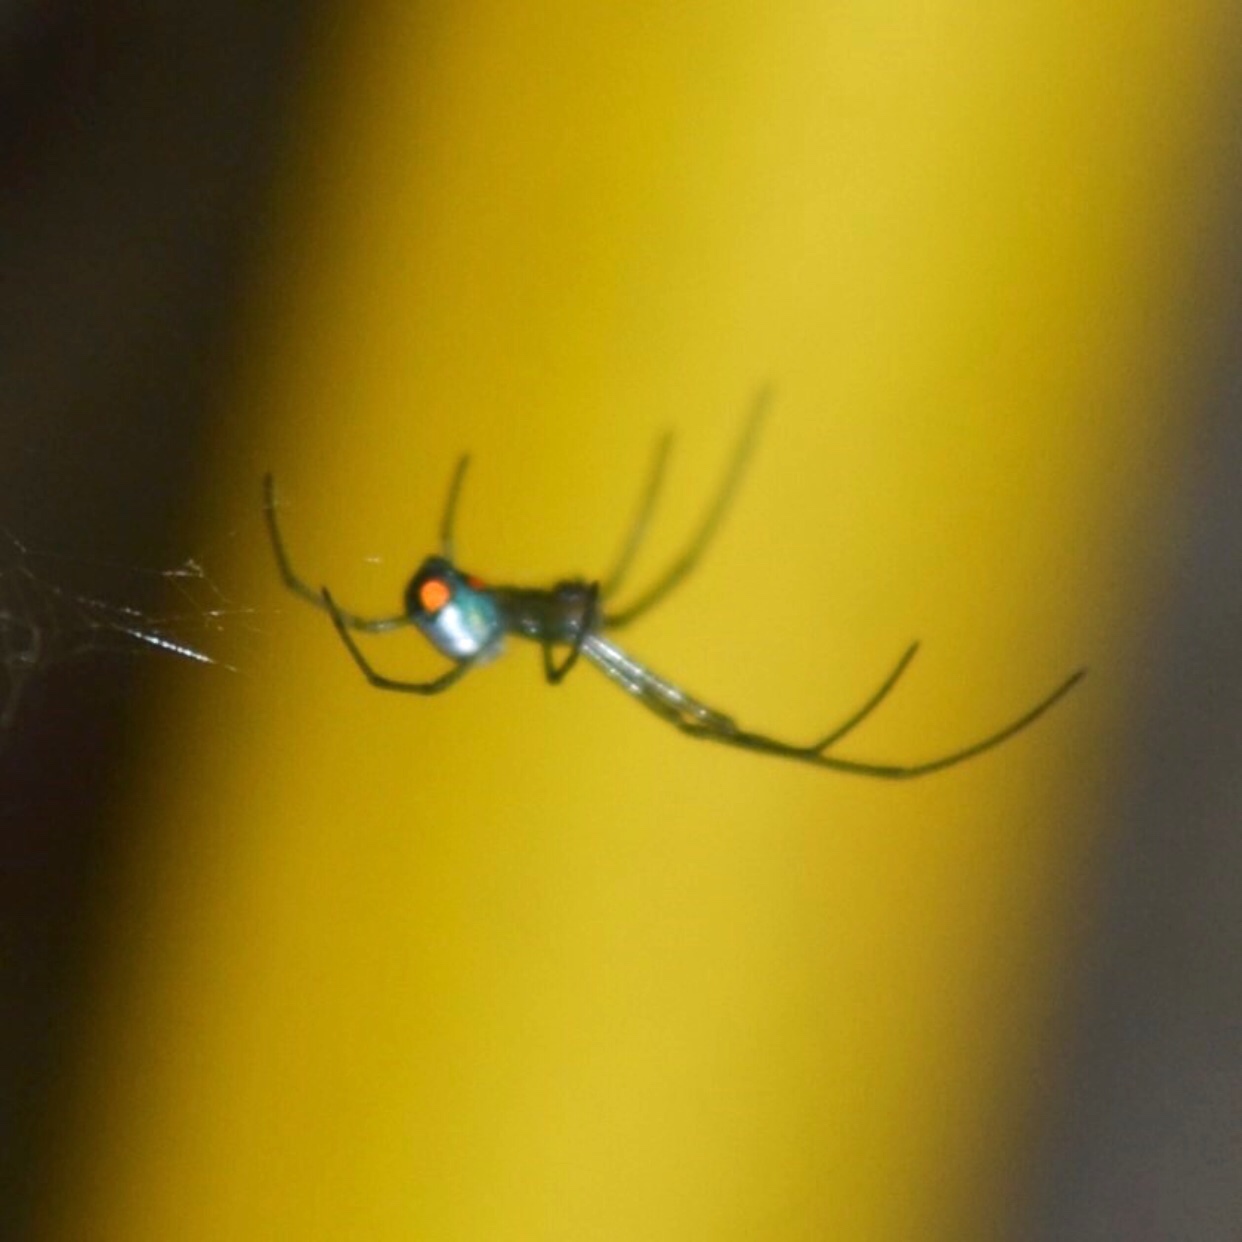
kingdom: Animalia
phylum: Arthropoda
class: Arachnida
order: Araneae
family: Tetragnathidae
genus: Leucauge
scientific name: Leucauge argyrobapta
